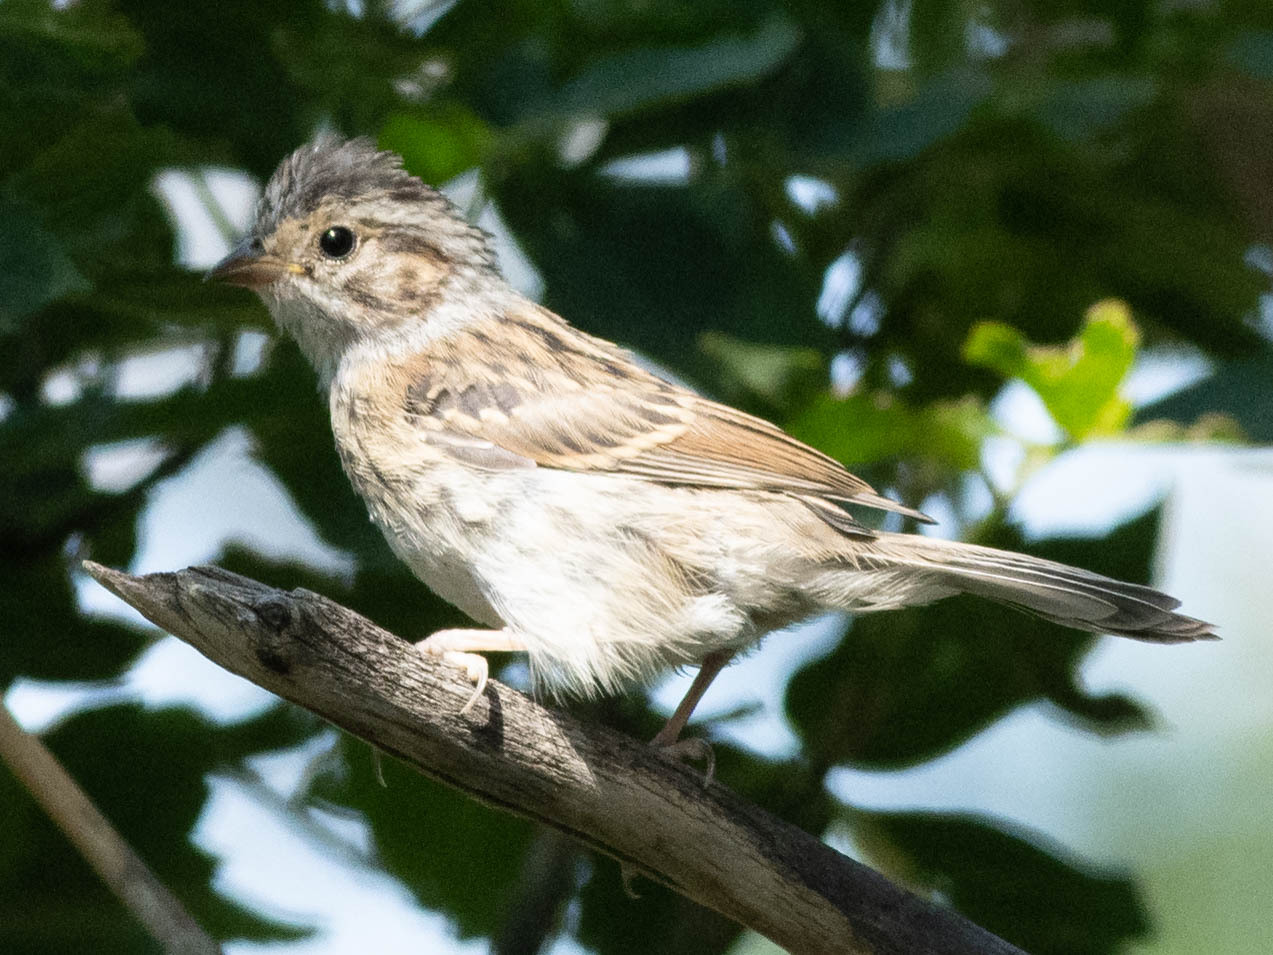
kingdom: Animalia
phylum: Chordata
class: Aves
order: Passeriformes
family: Passerellidae
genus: Spizella
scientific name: Spizella pallida
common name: Clay-colored sparrow
